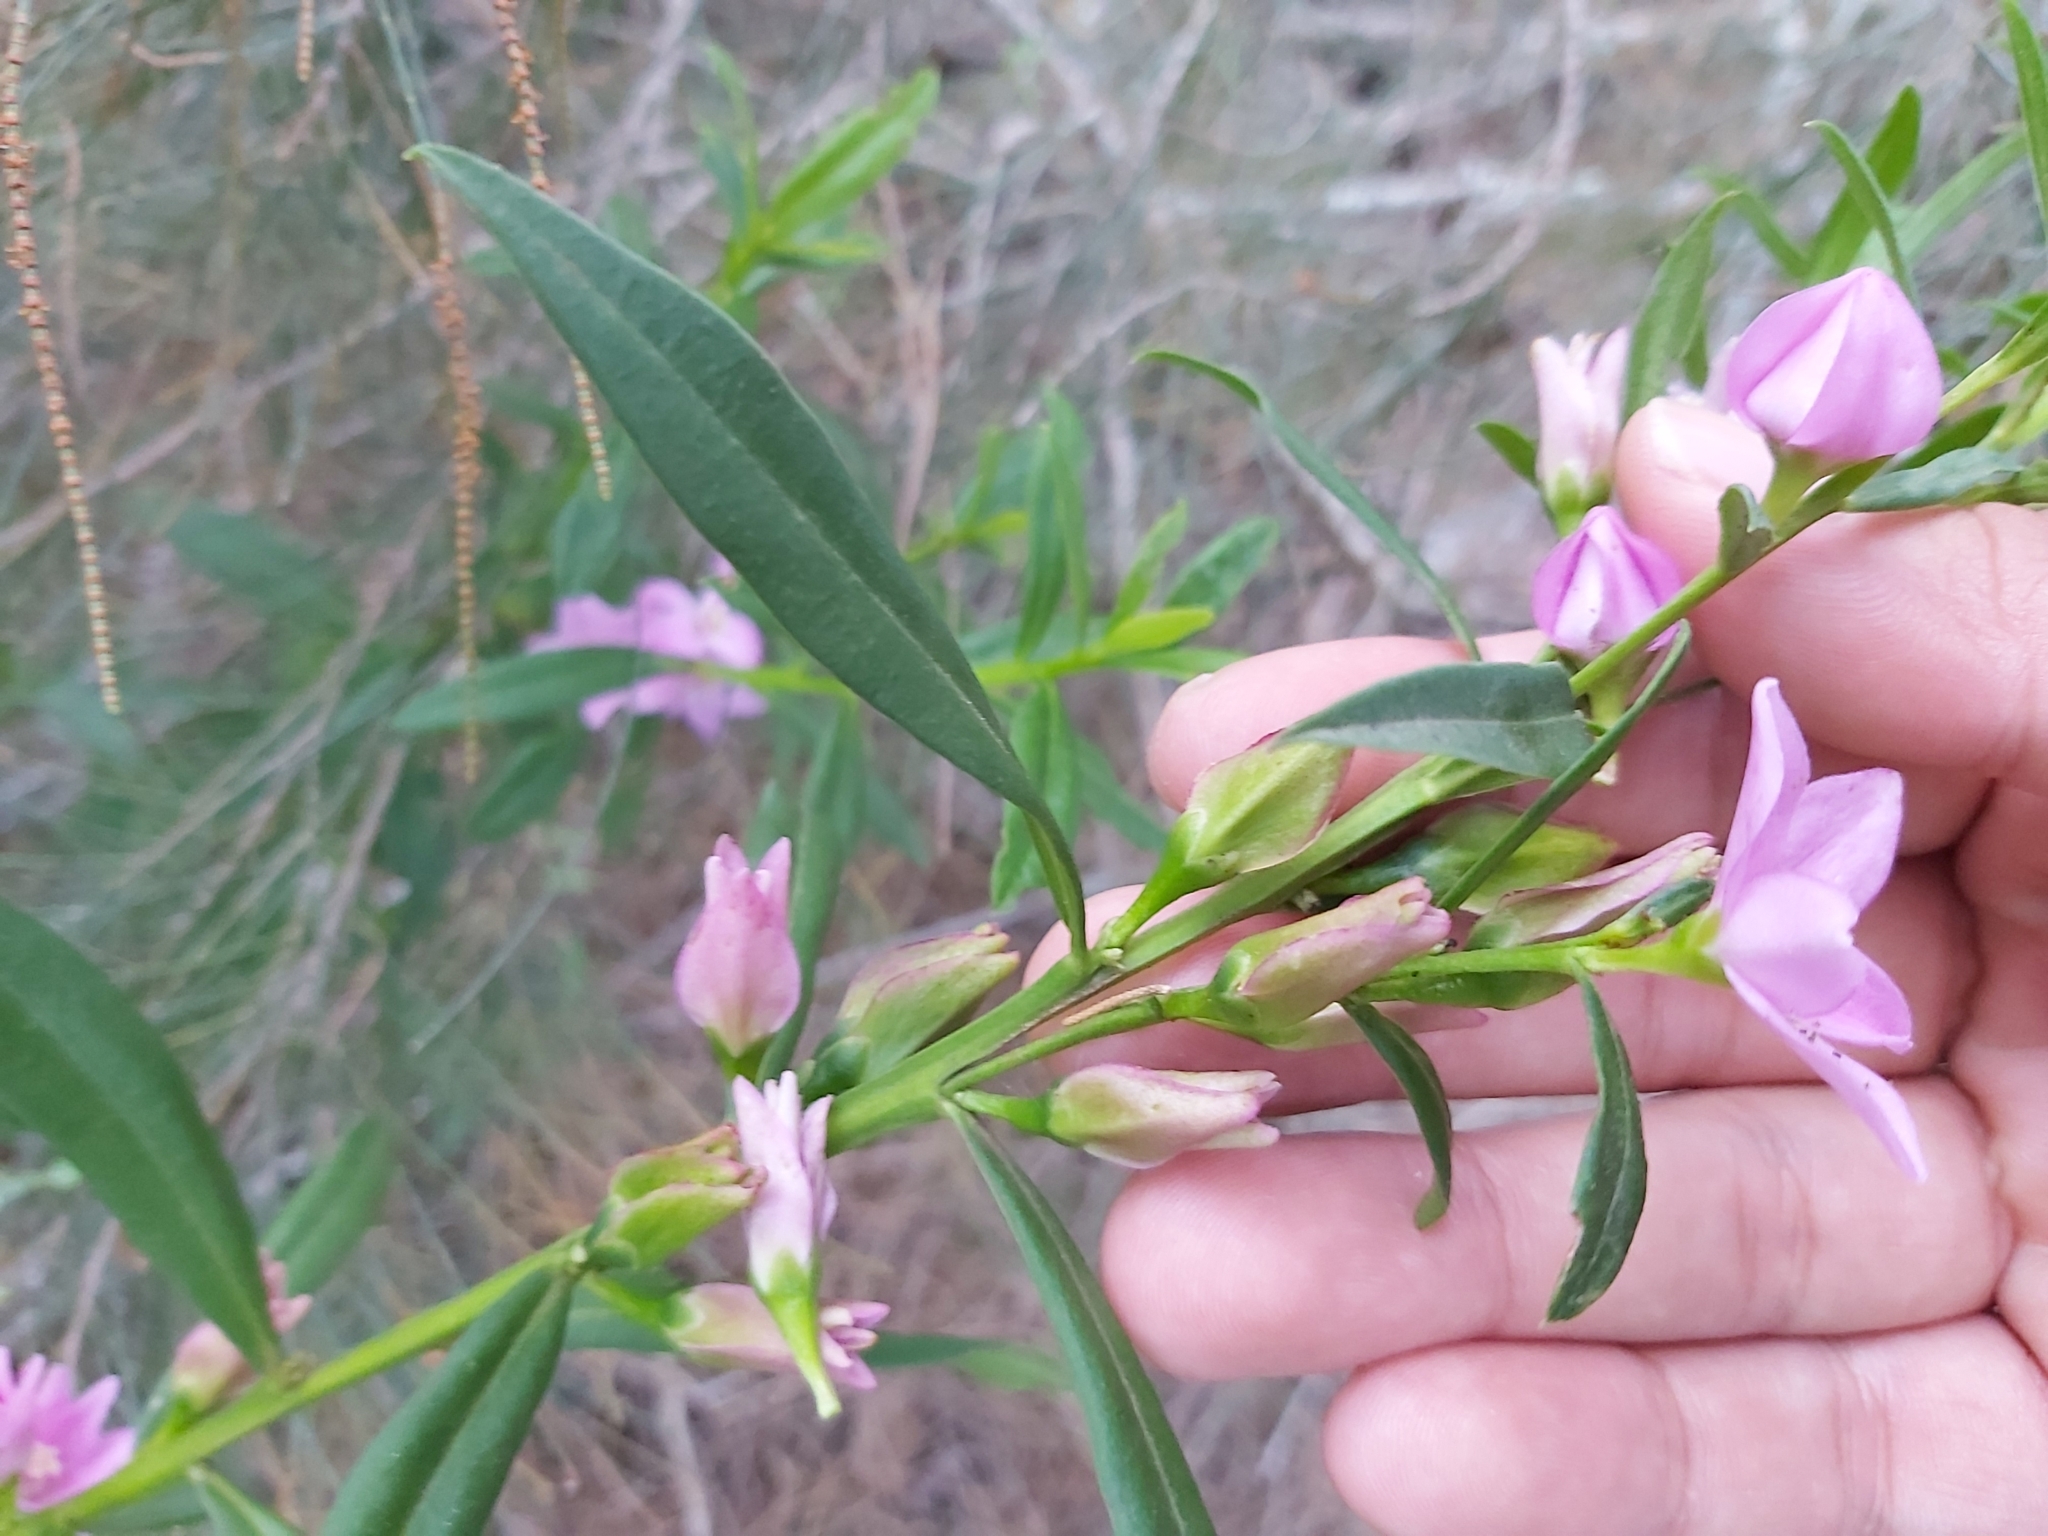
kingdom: Plantae
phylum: Tracheophyta
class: Magnoliopsida
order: Sapindales
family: Rutaceae
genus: Crowea
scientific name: Crowea saligna
